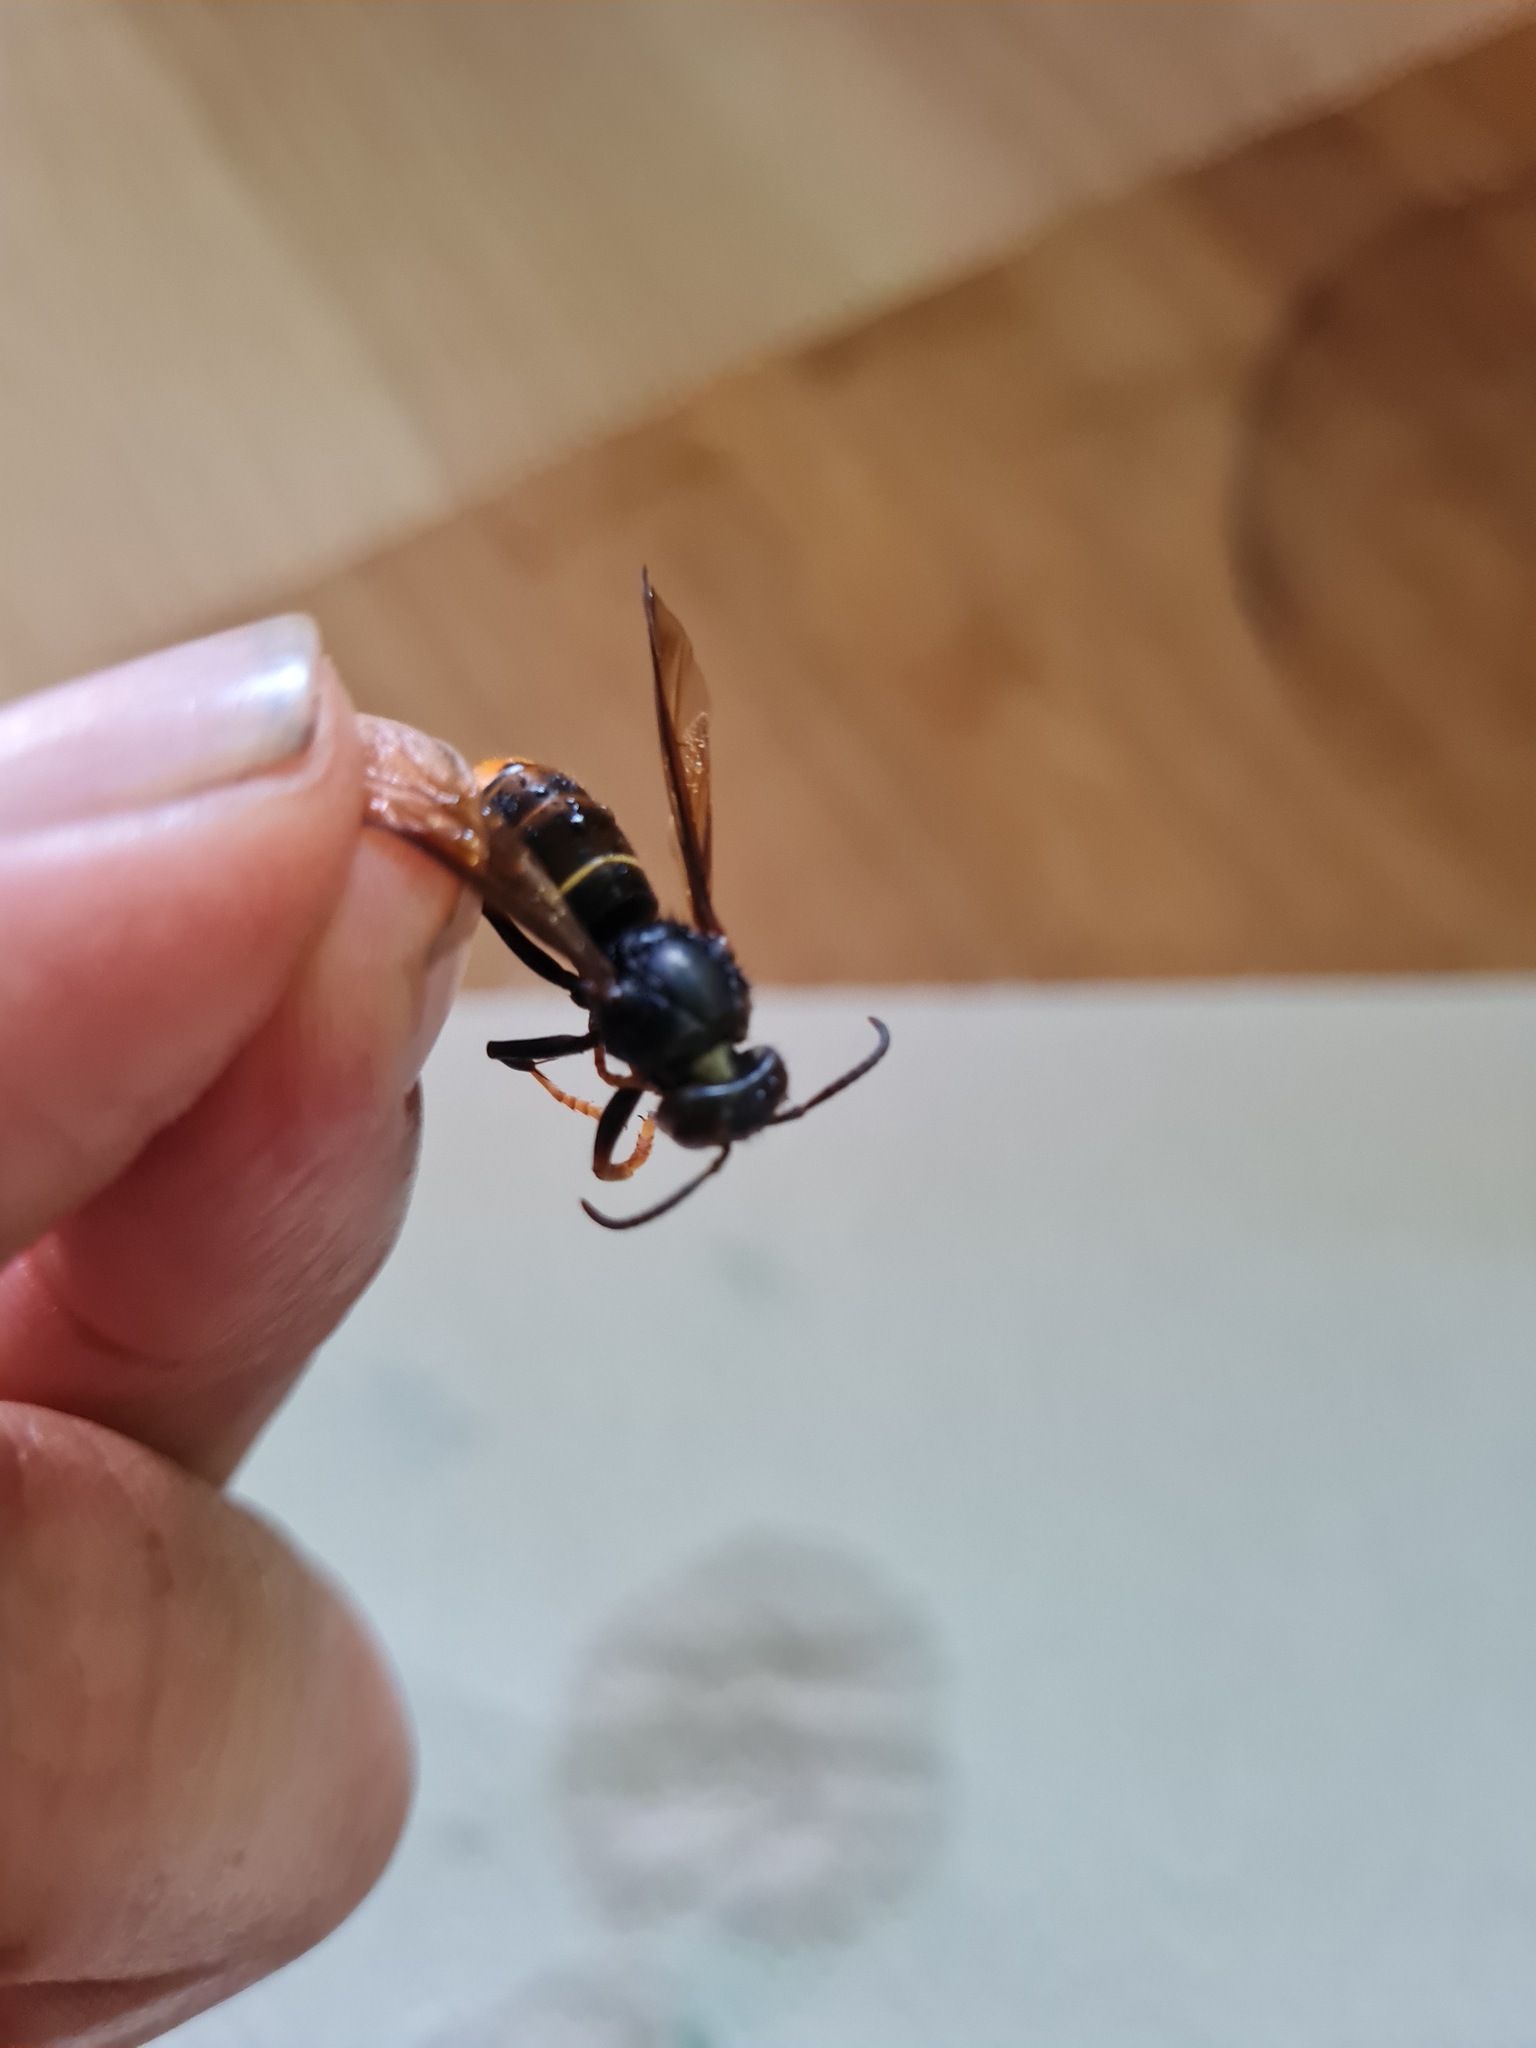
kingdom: Animalia
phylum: Arthropoda
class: Insecta
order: Hymenoptera
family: Vespidae
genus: Vespa
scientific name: Vespa velutina
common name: Asian hornet
